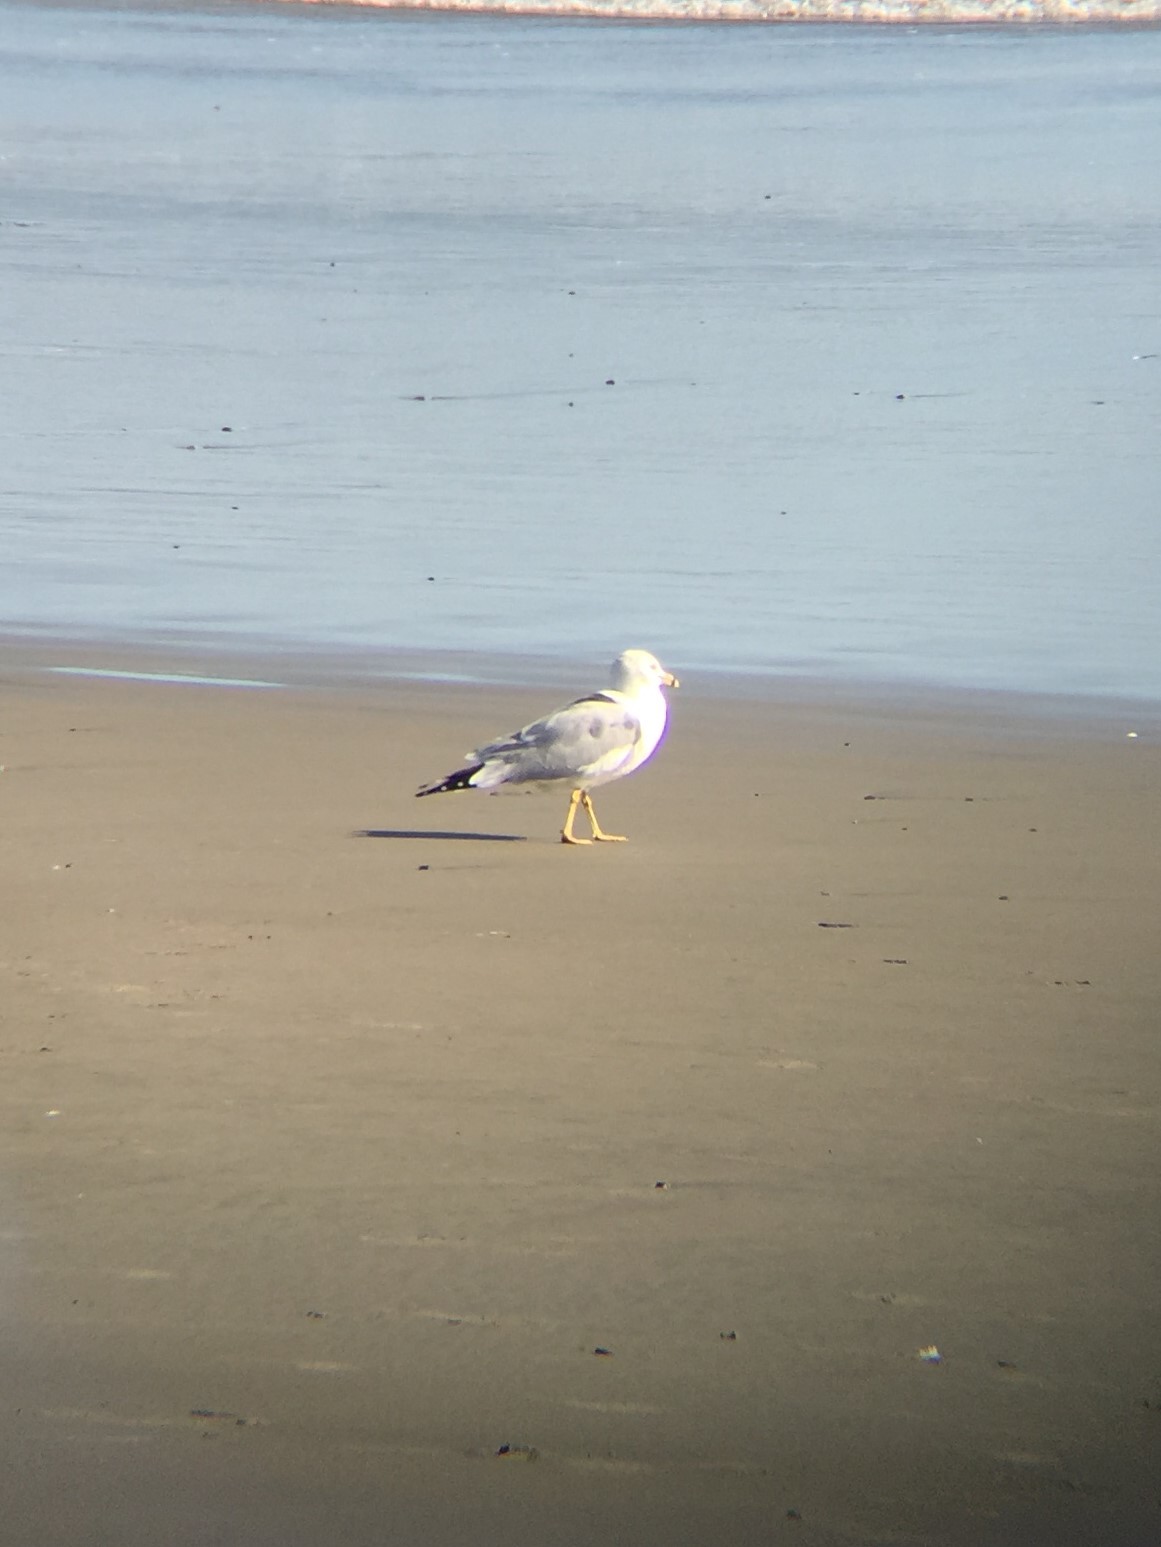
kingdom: Animalia
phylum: Chordata
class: Aves
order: Charadriiformes
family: Laridae
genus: Larus
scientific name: Larus delawarensis
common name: Ring-billed gull
